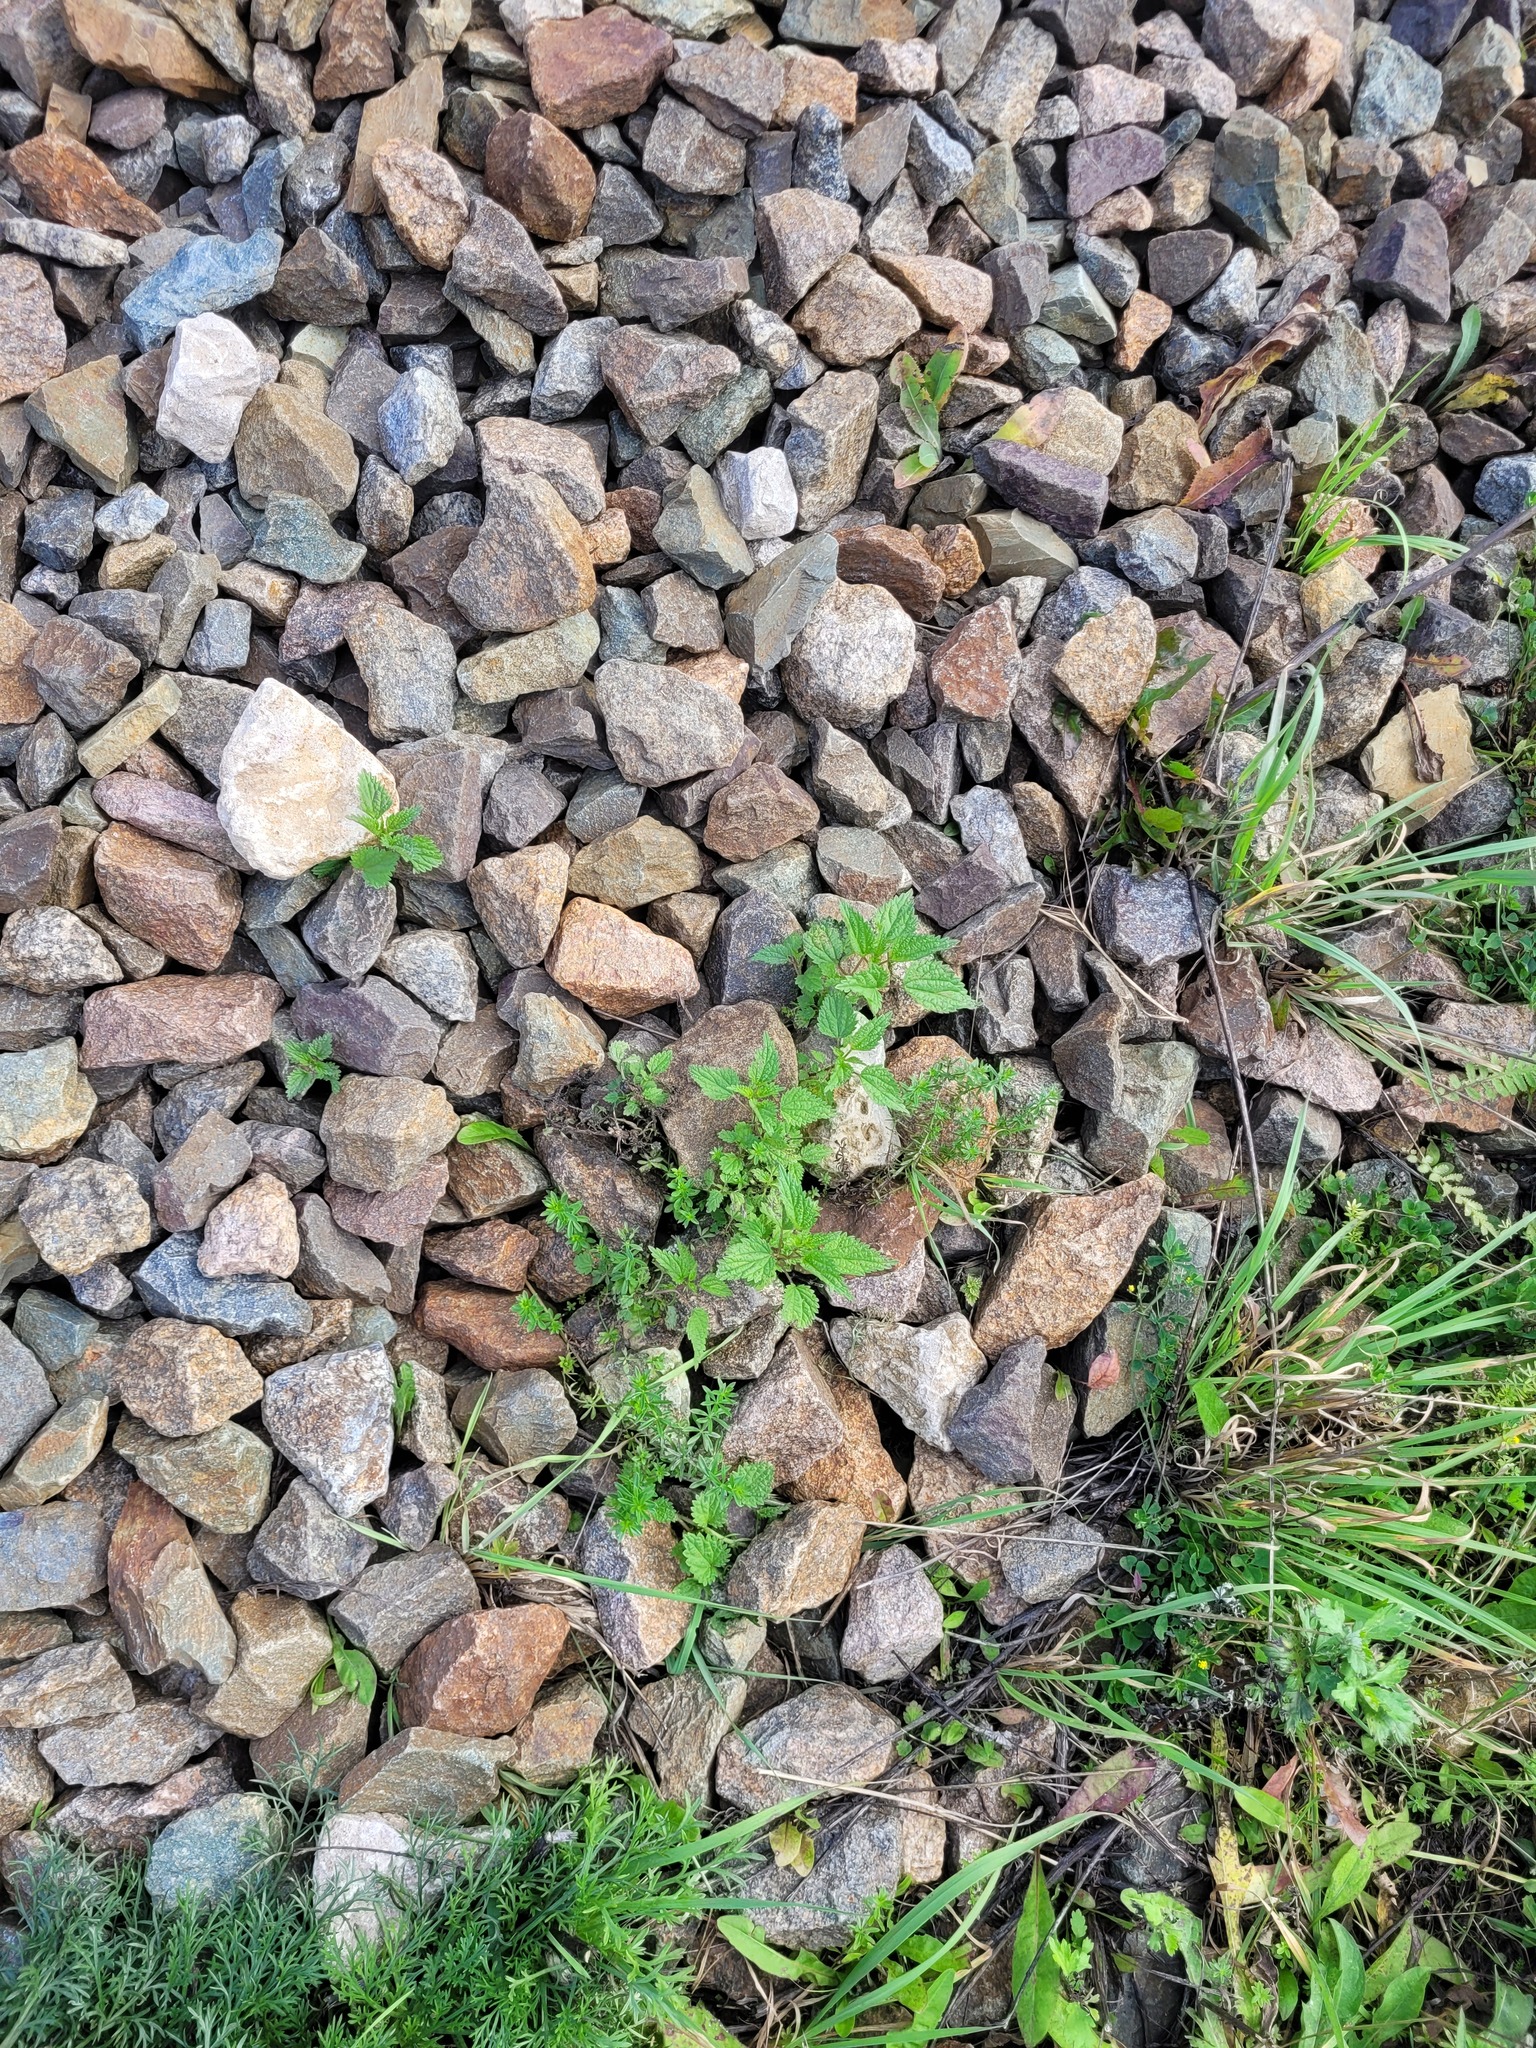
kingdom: Plantae
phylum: Tracheophyta
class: Magnoliopsida
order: Rosales
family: Urticaceae
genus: Urtica
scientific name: Urtica dioica
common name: Common nettle
